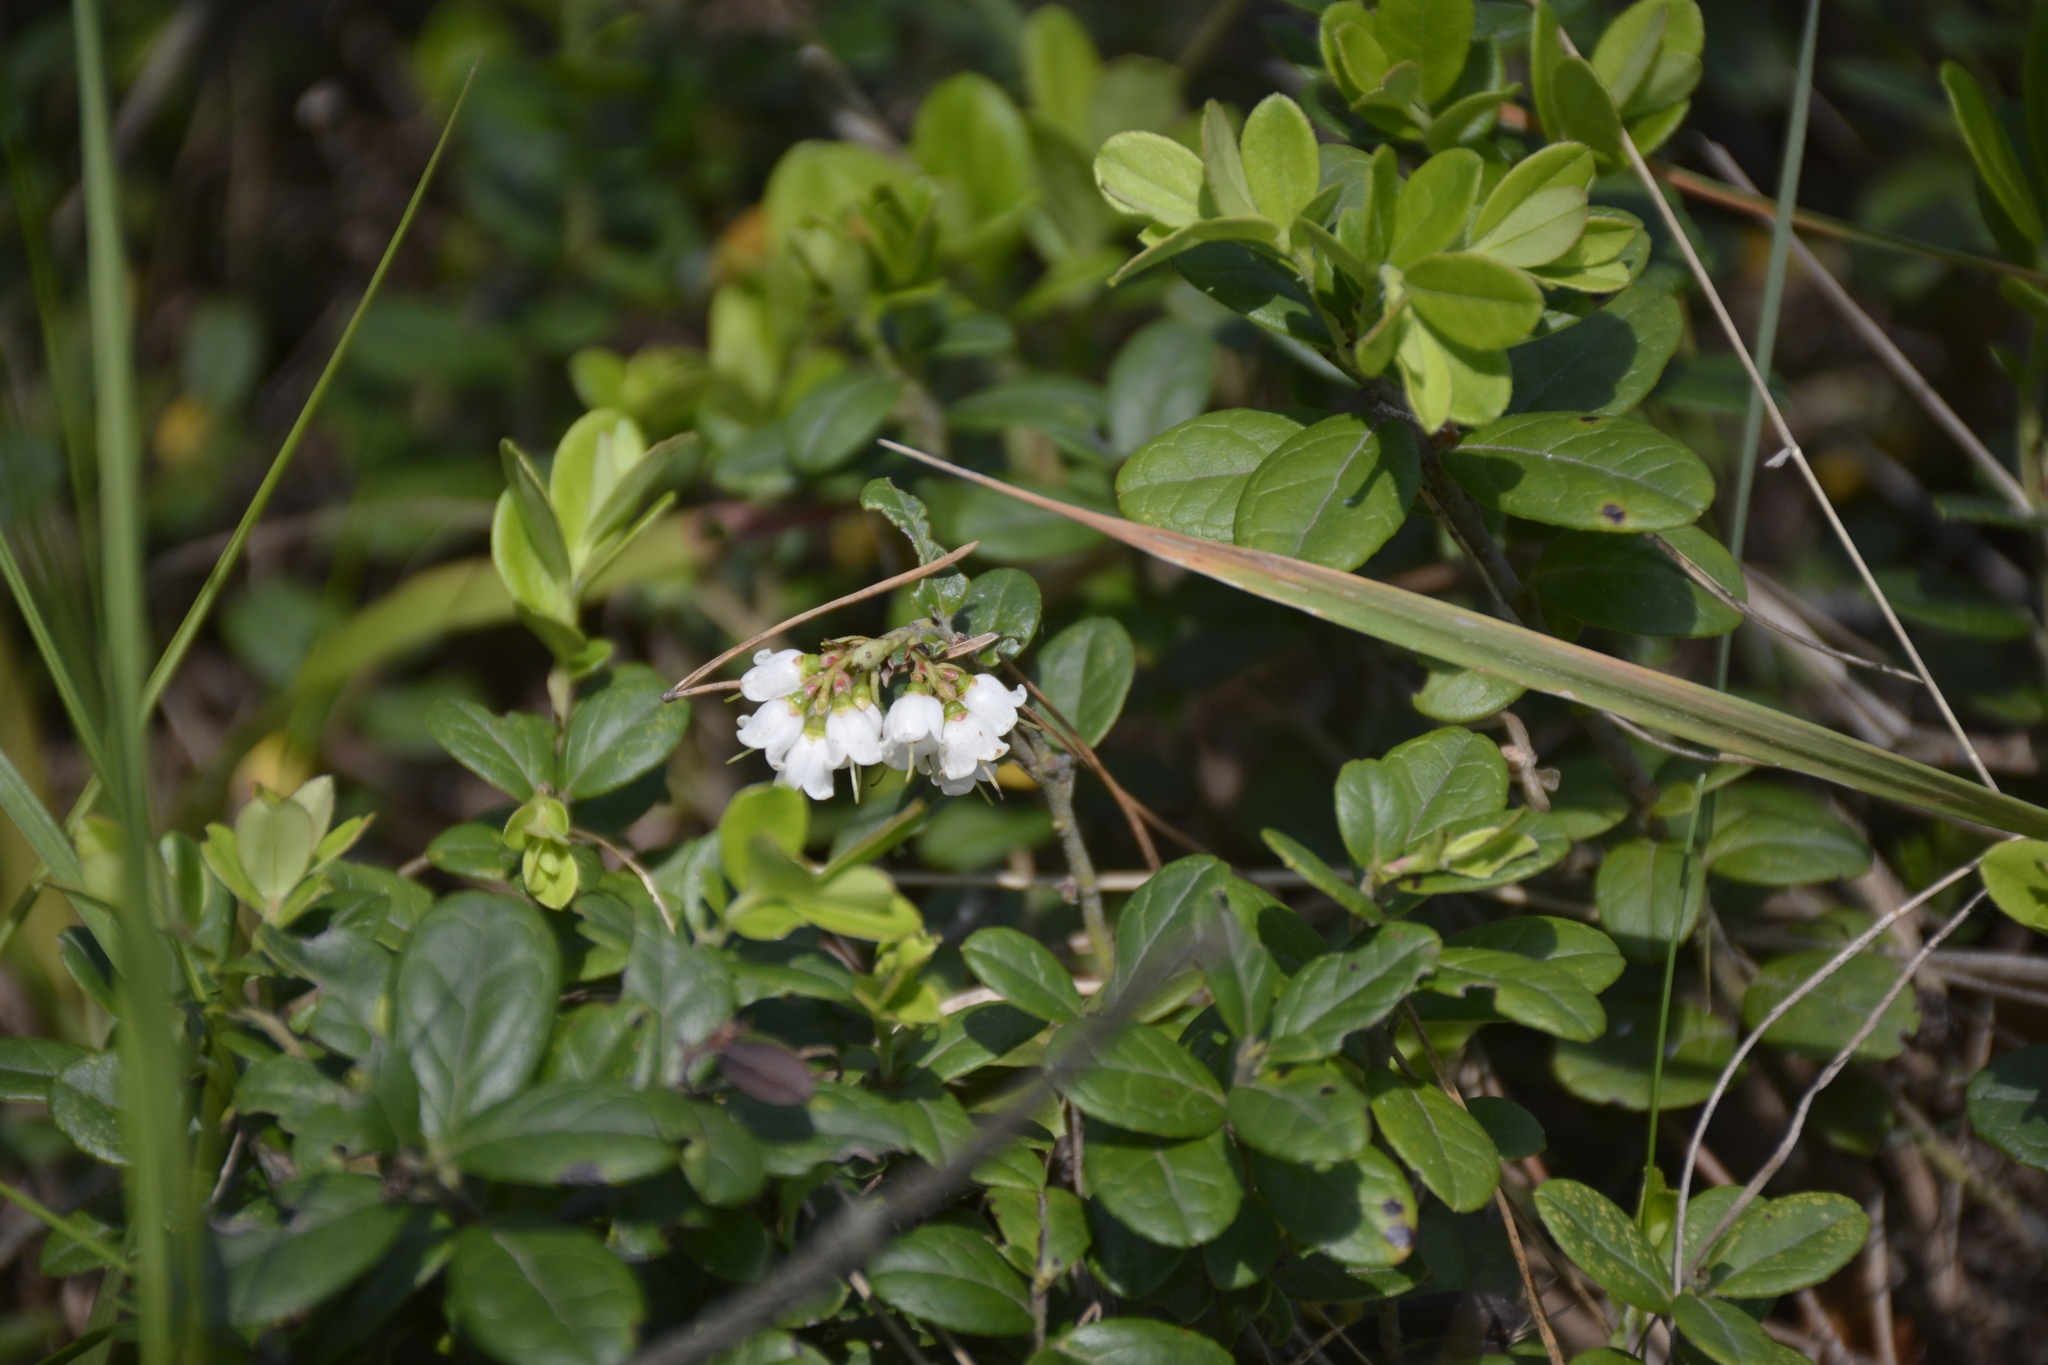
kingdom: Plantae
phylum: Tracheophyta
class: Magnoliopsida
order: Ericales
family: Ericaceae
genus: Vaccinium
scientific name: Vaccinium vitis-idaea
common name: Cowberry
